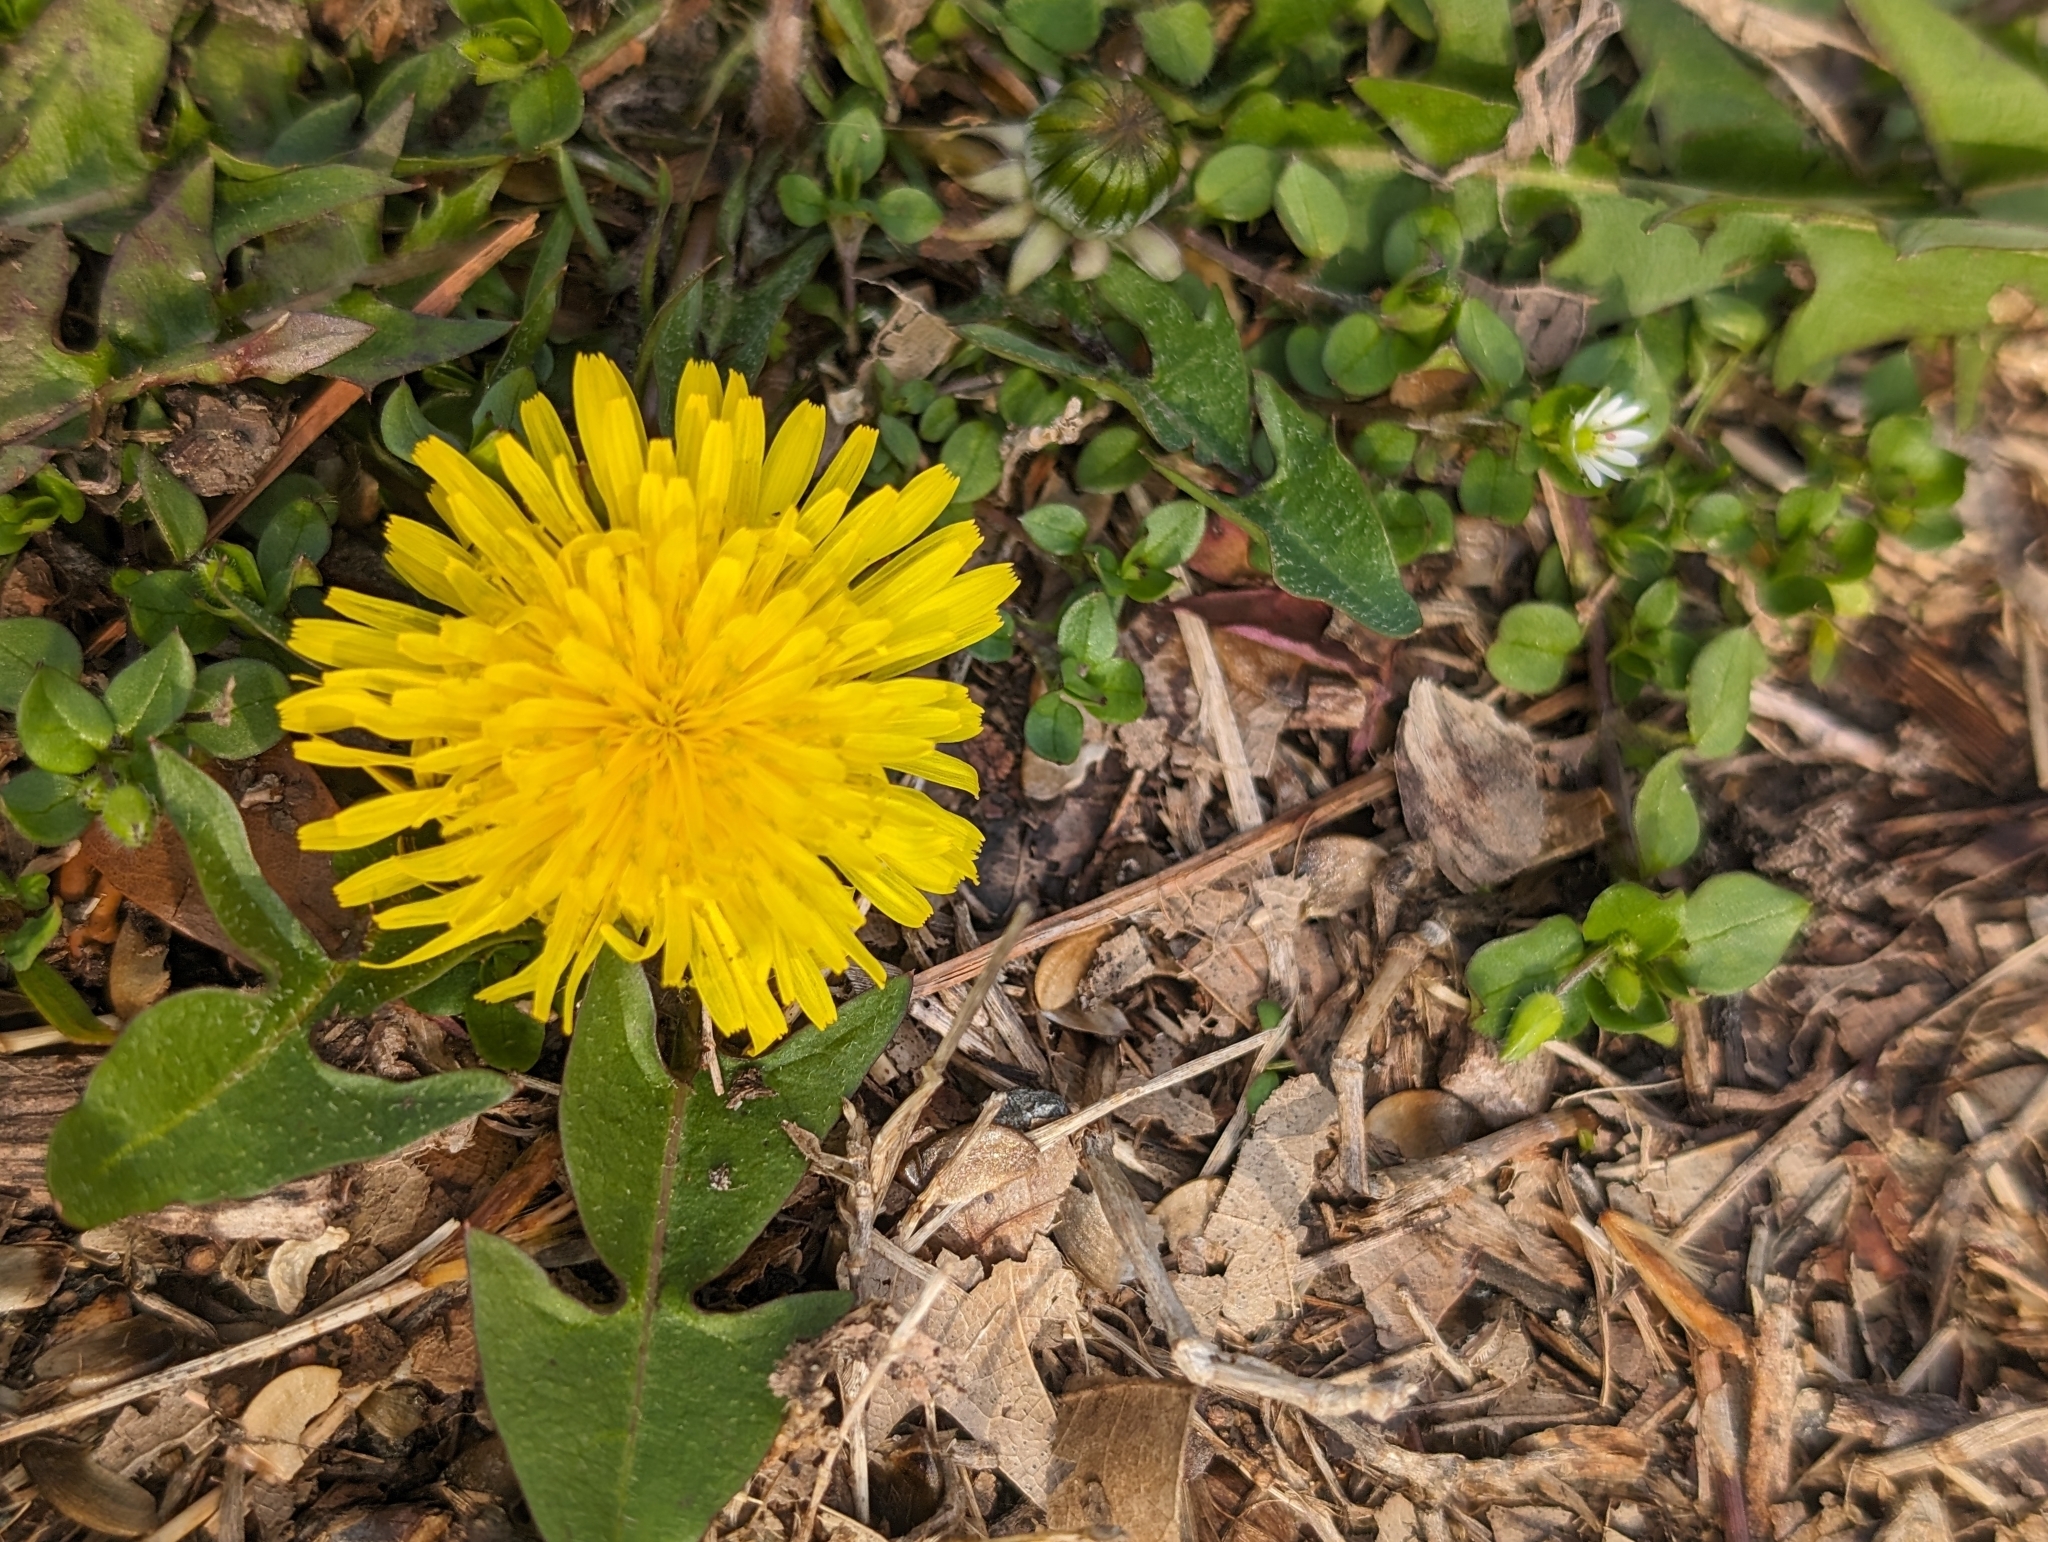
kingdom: Plantae
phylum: Tracheophyta
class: Magnoliopsida
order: Asterales
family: Asteraceae
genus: Taraxacum
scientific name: Taraxacum
